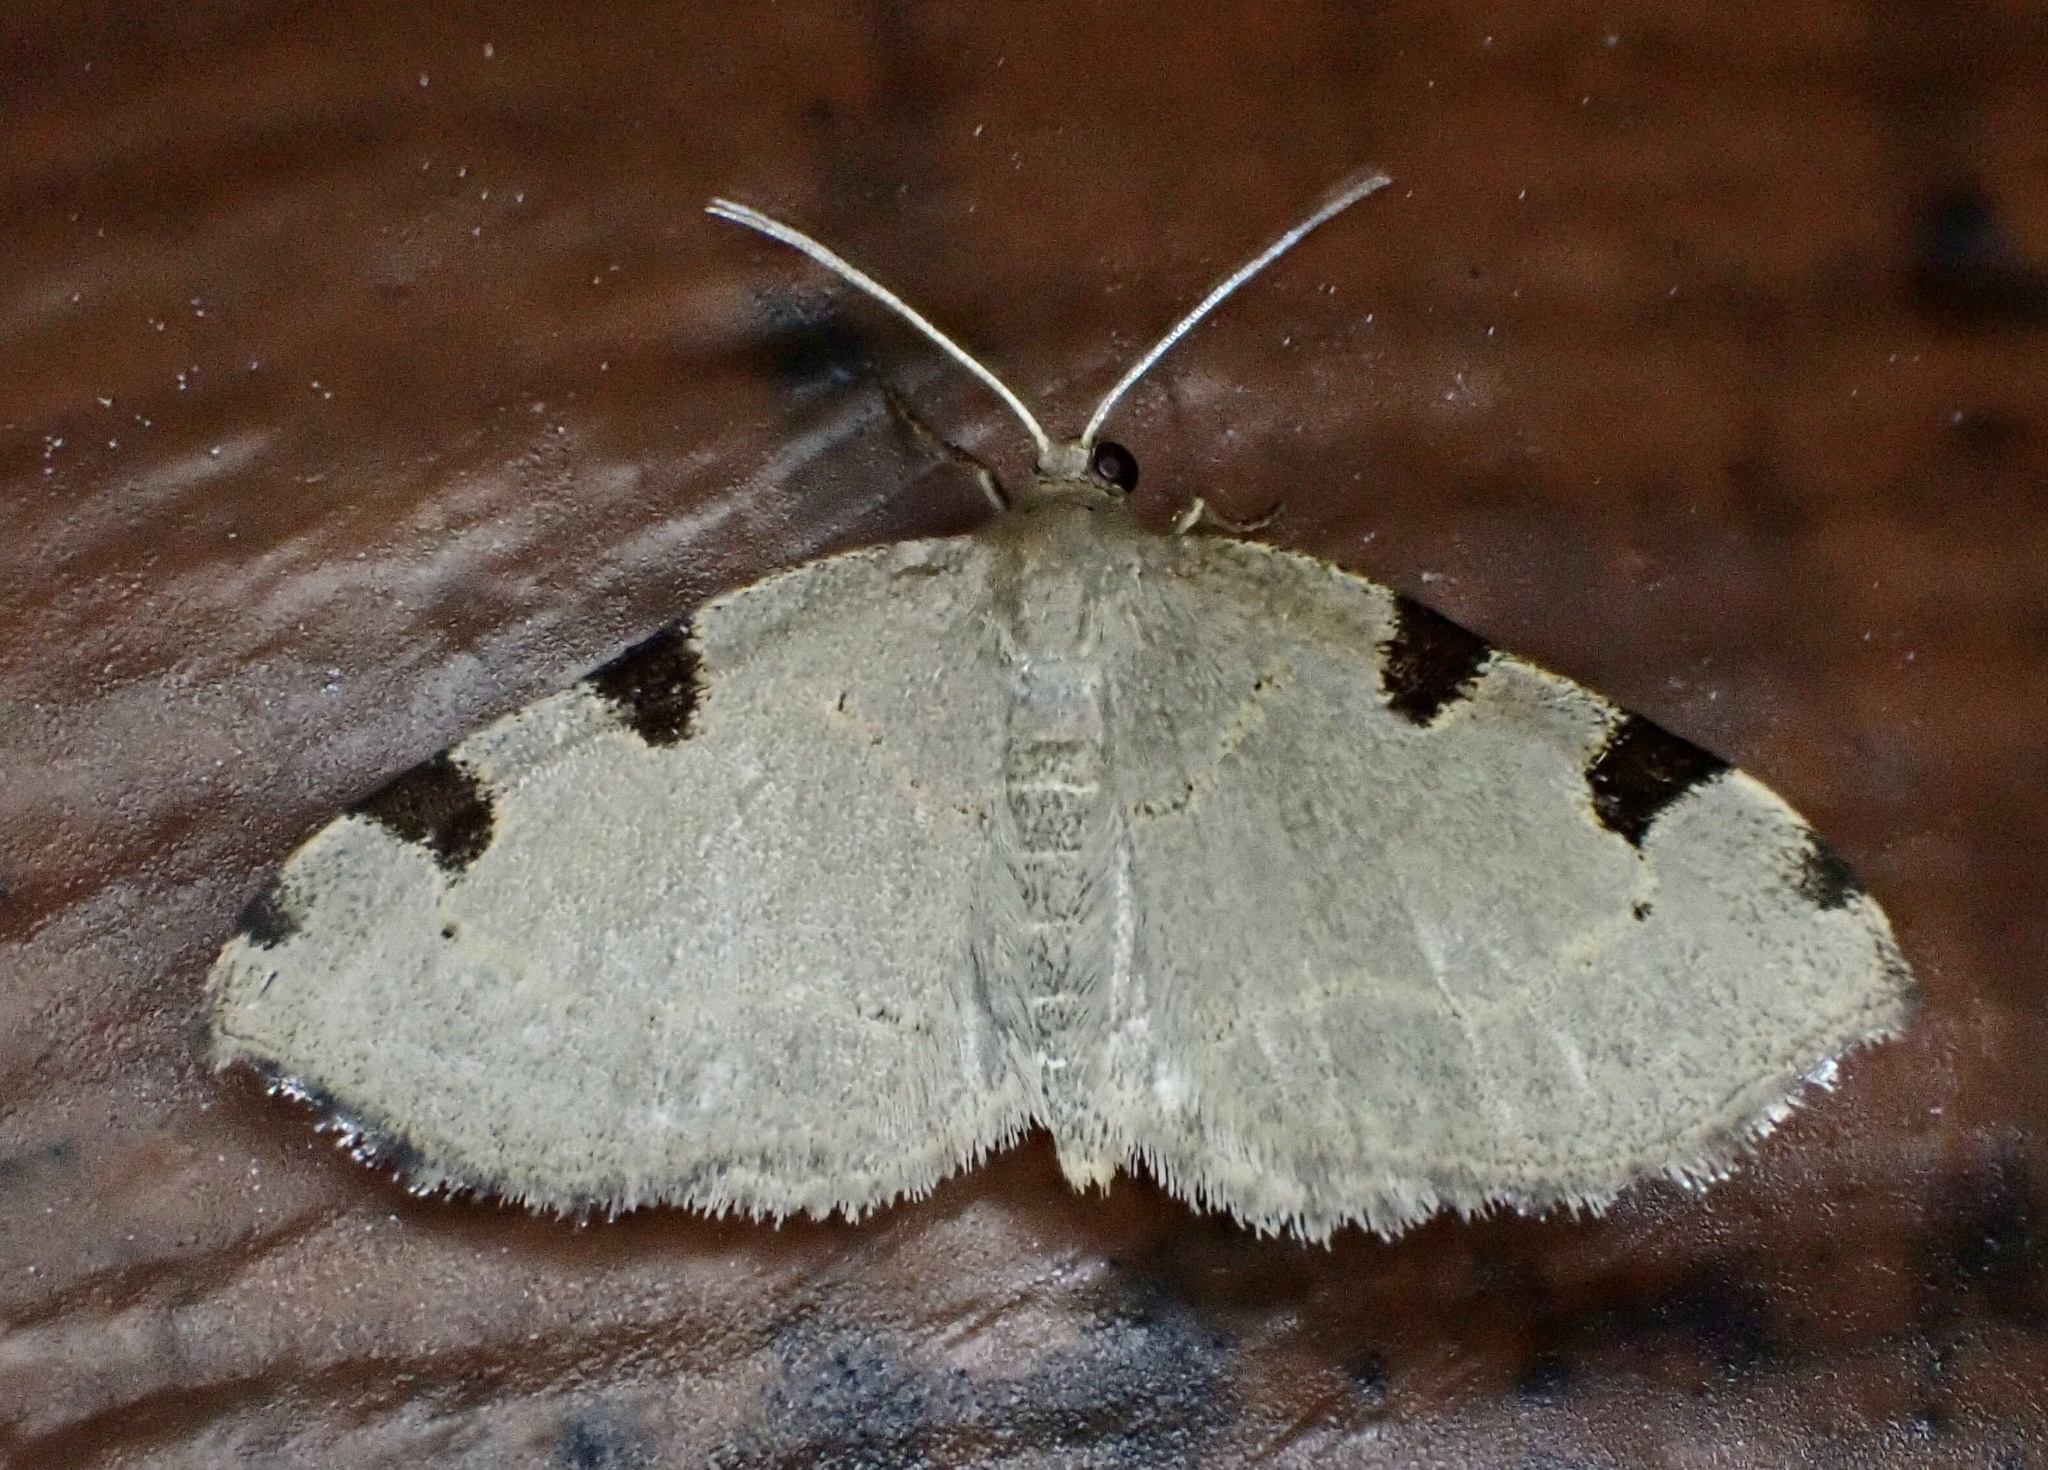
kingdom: Animalia
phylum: Arthropoda
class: Insecta
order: Lepidoptera
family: Geometridae
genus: Heterophleps
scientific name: Heterophleps triguttaria
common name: Three-spotted fillip
